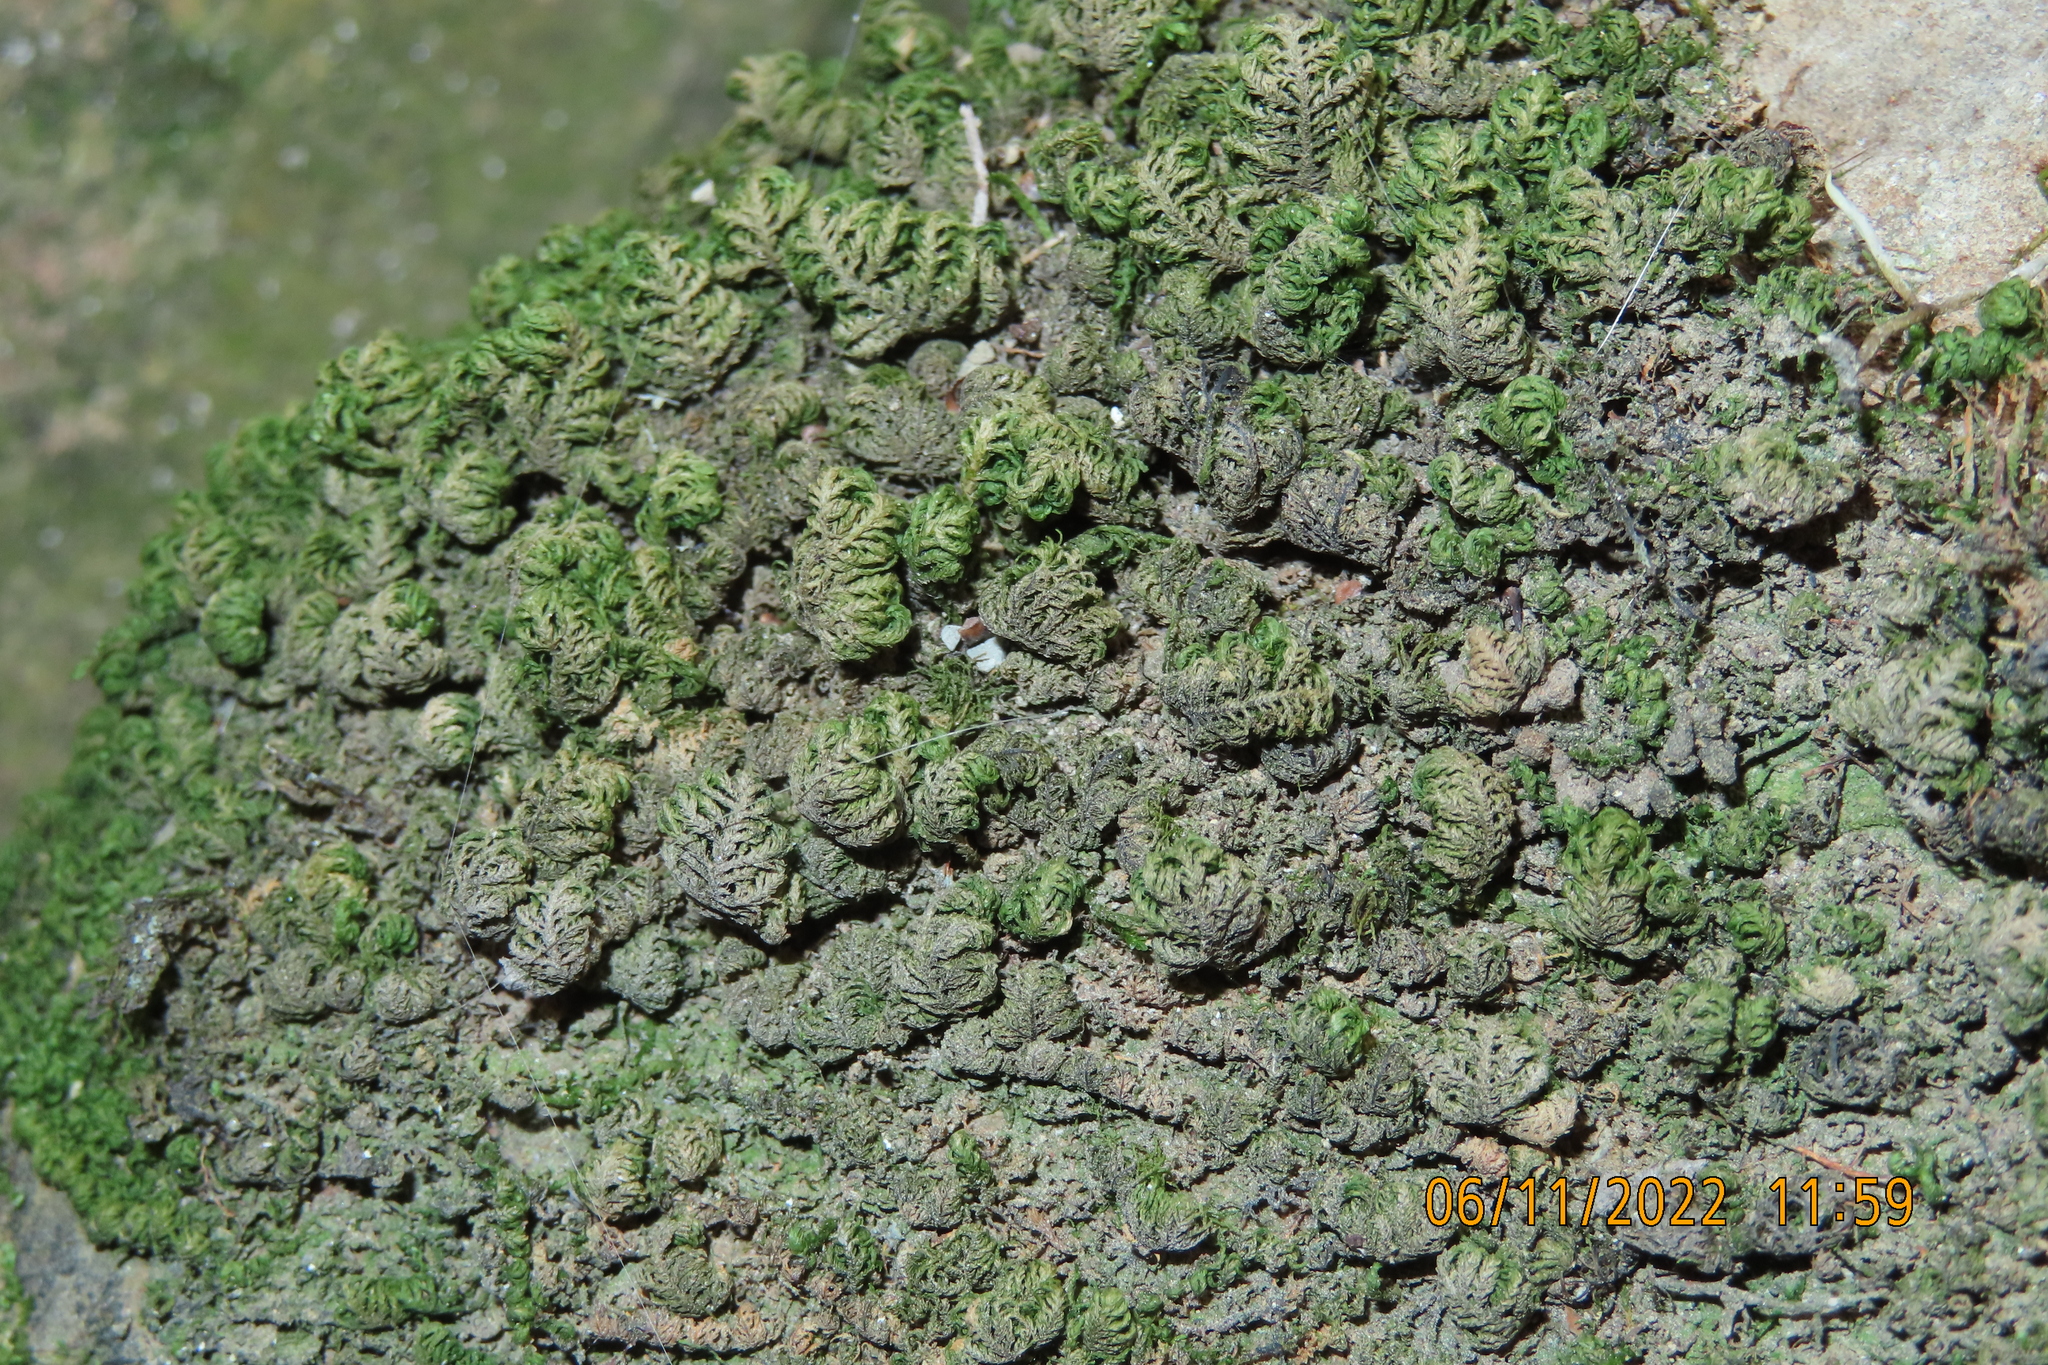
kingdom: Plantae
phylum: Bryophyta
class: Bryopsida
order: Hypnales
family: Neckeraceae
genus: Leptodon
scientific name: Leptodon smithii
